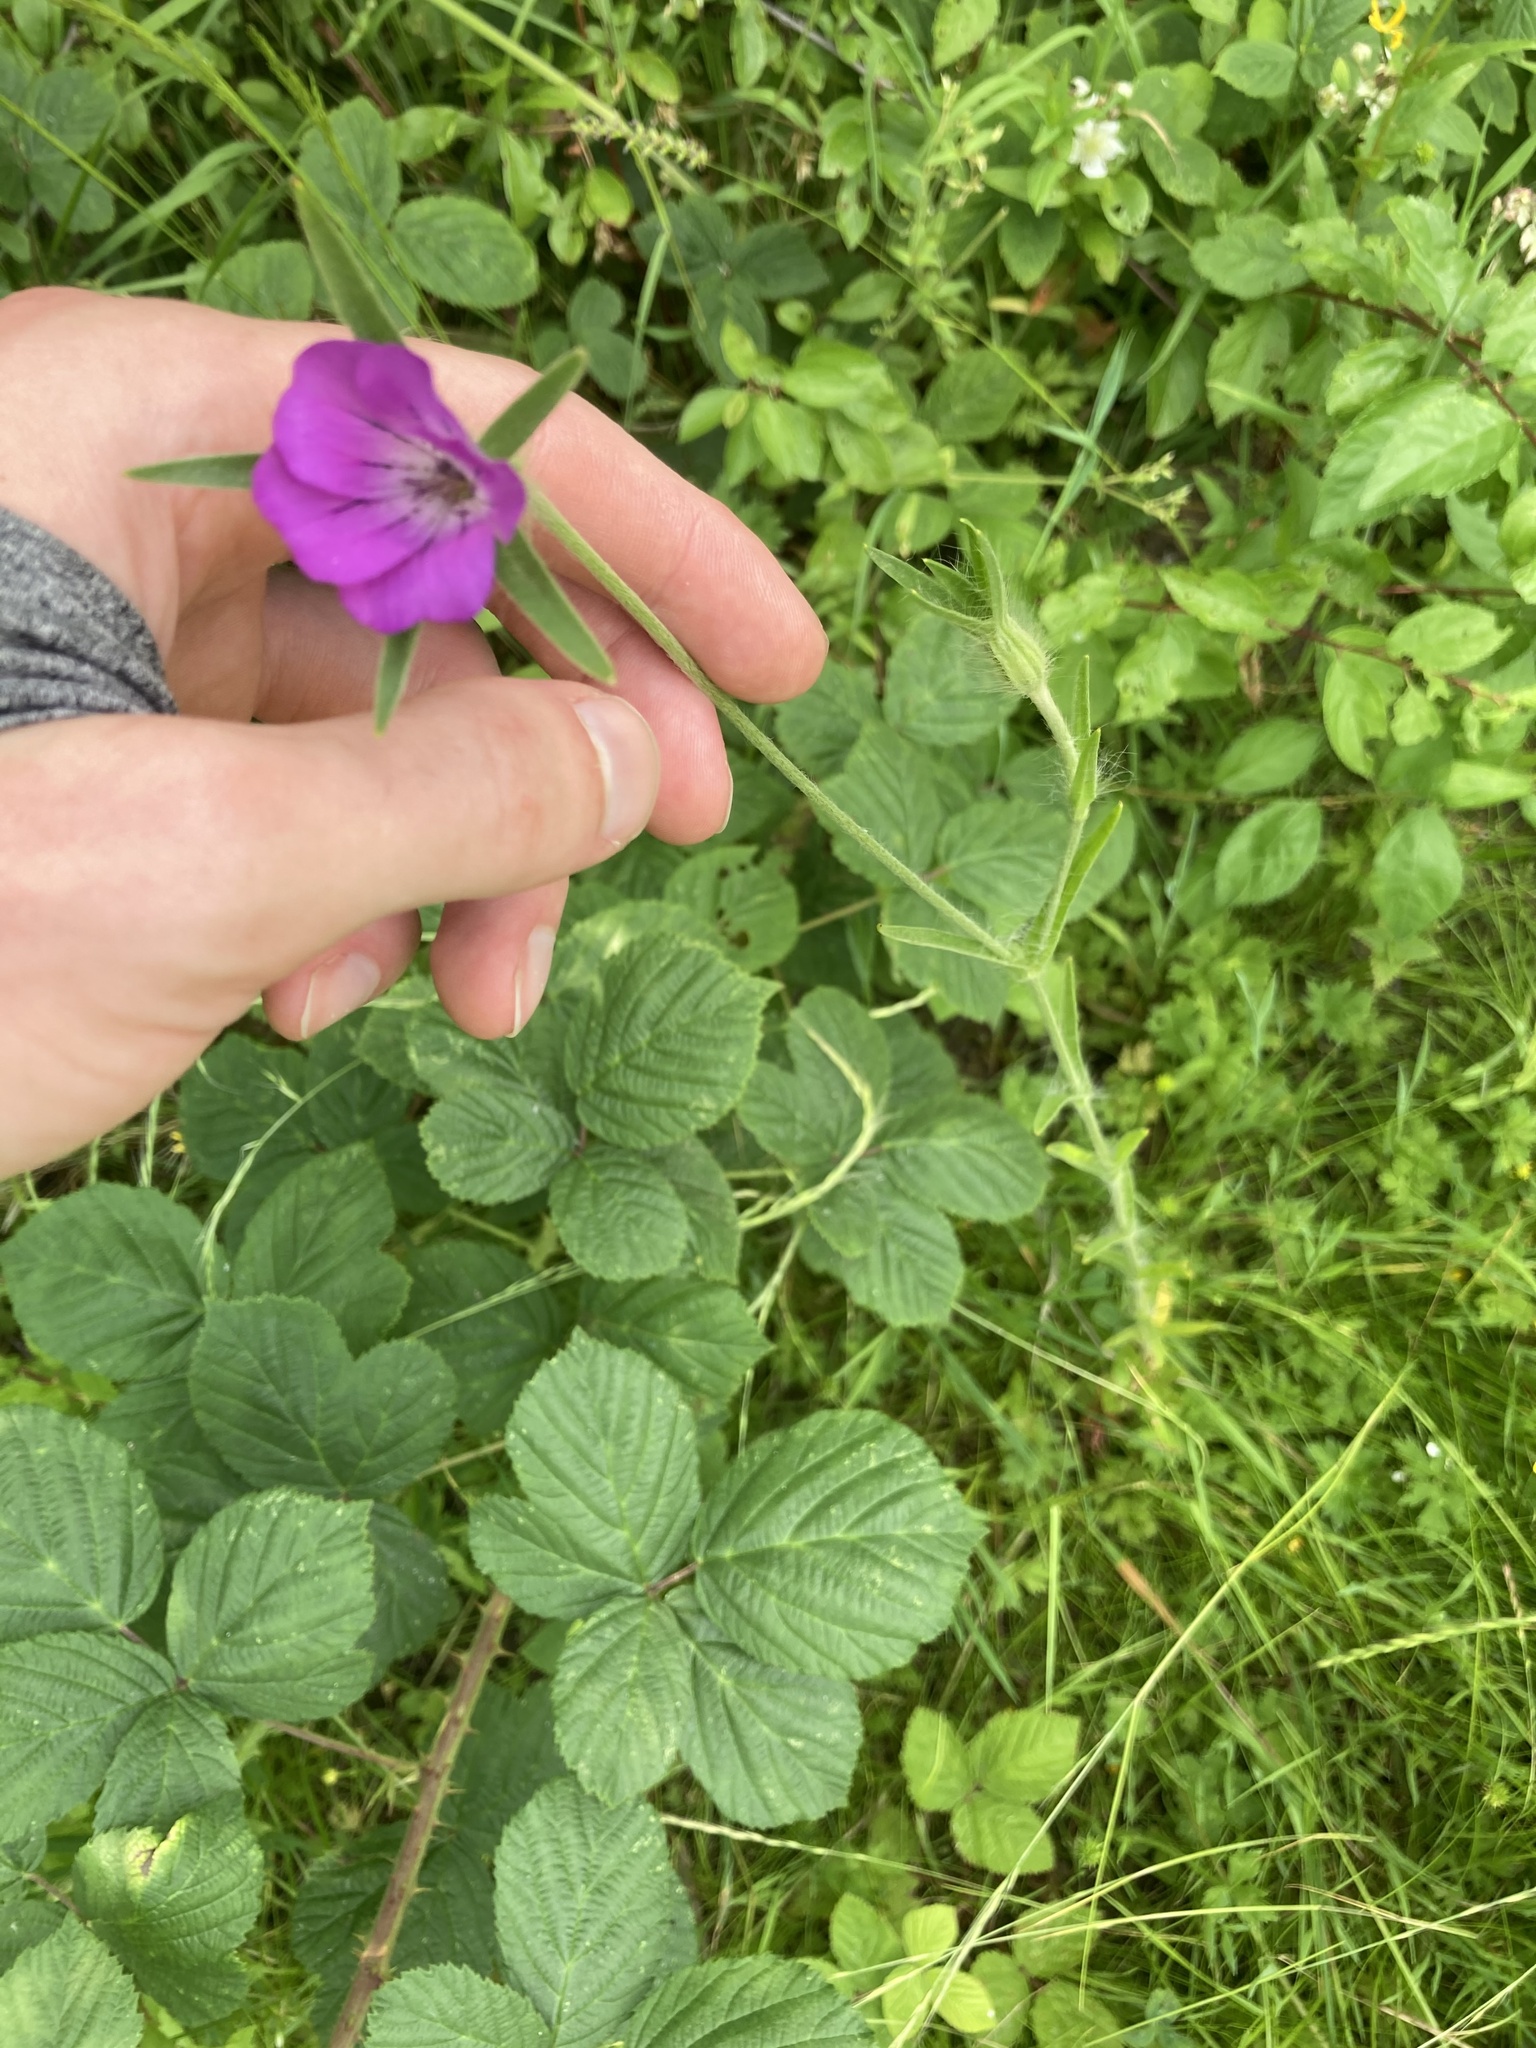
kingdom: Plantae
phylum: Tracheophyta
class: Magnoliopsida
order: Caryophyllales
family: Caryophyllaceae
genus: Agrostemma
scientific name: Agrostemma githago
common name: Common corncockle
